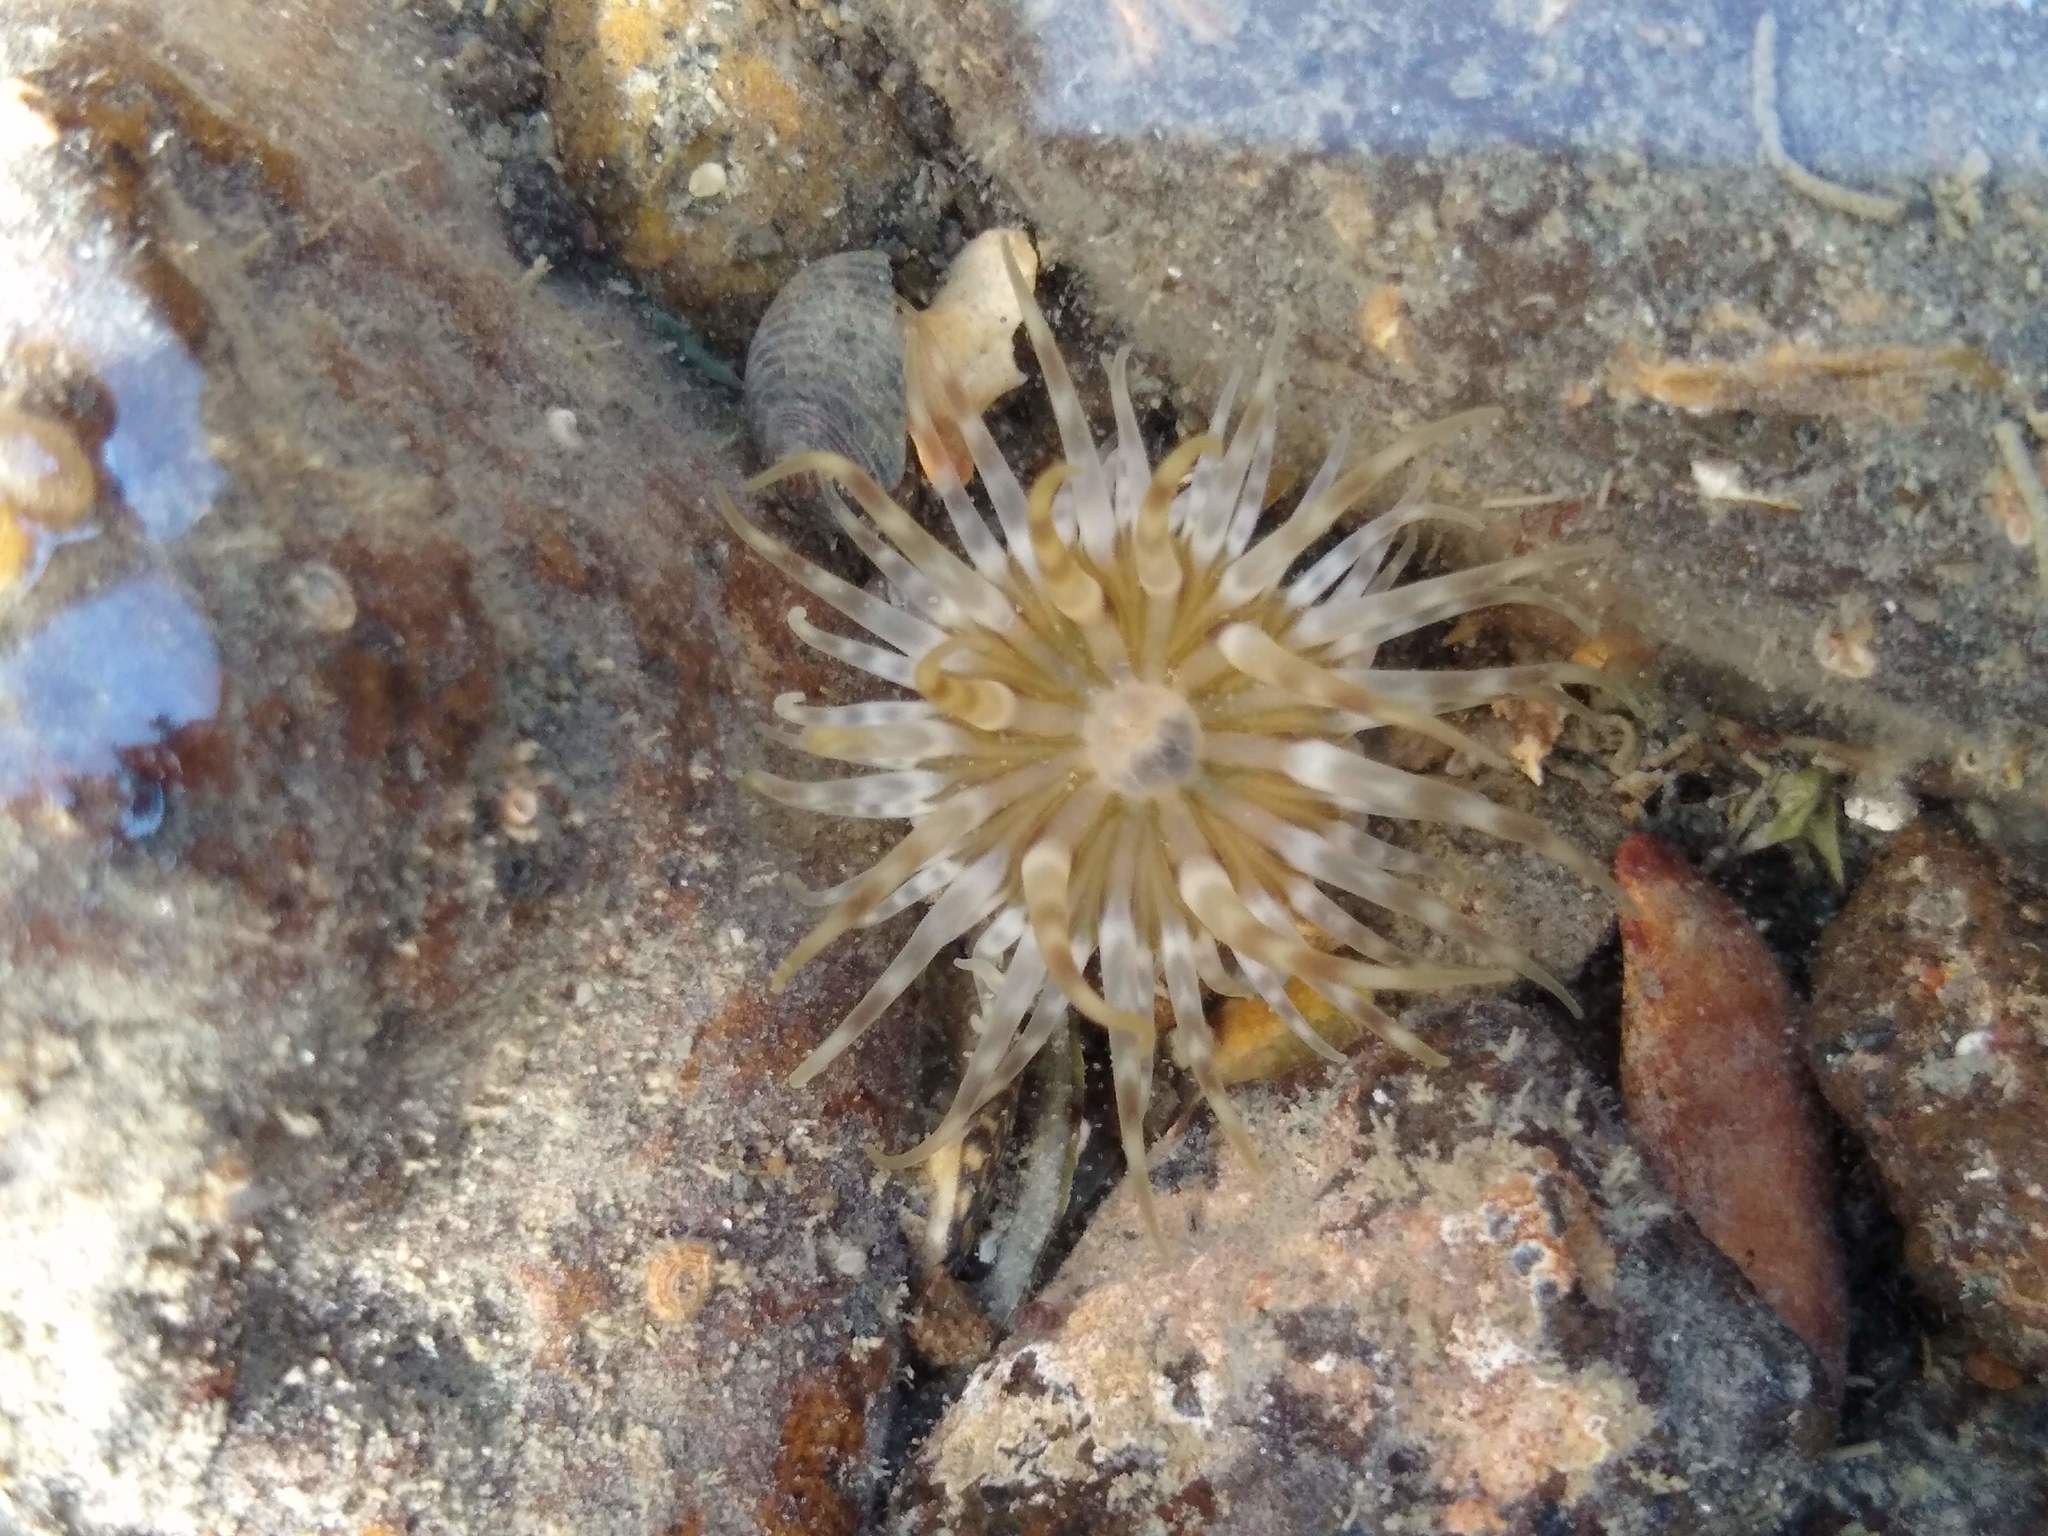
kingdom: Animalia
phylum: Cnidaria
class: Anthozoa
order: Actiniaria
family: Isanthidae
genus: Isoparactis
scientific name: Isoparactis ferax
